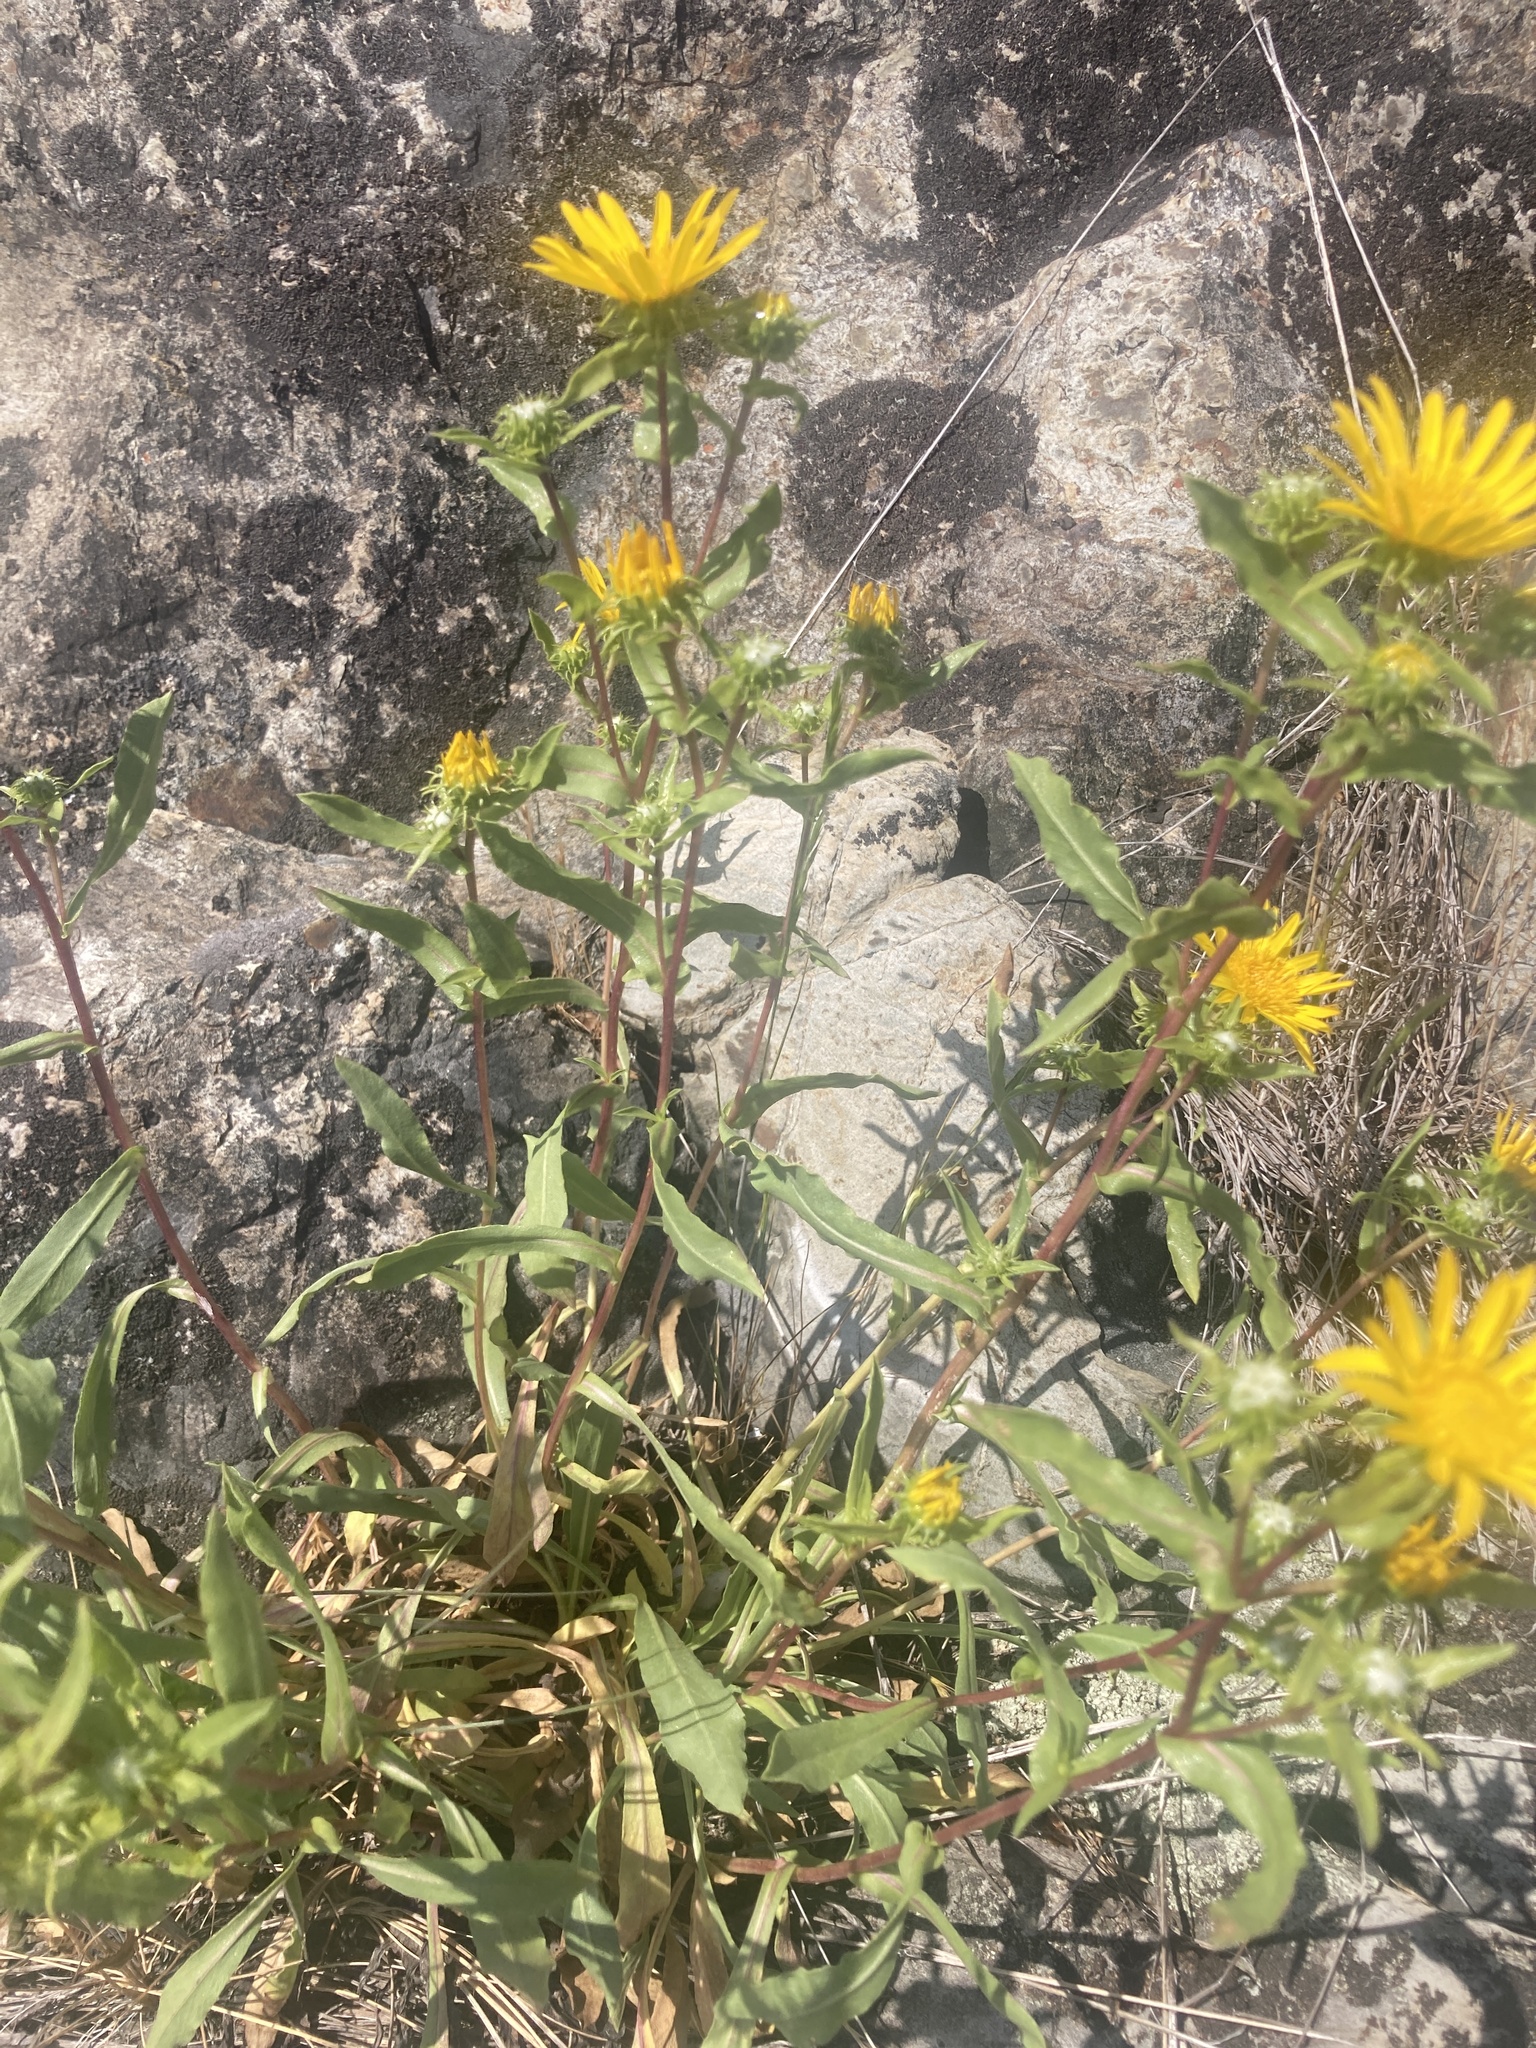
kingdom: Plantae
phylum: Tracheophyta
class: Magnoliopsida
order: Asterales
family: Asteraceae
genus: Grindelia
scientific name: Grindelia hirsutula
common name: Hairy gumweed
